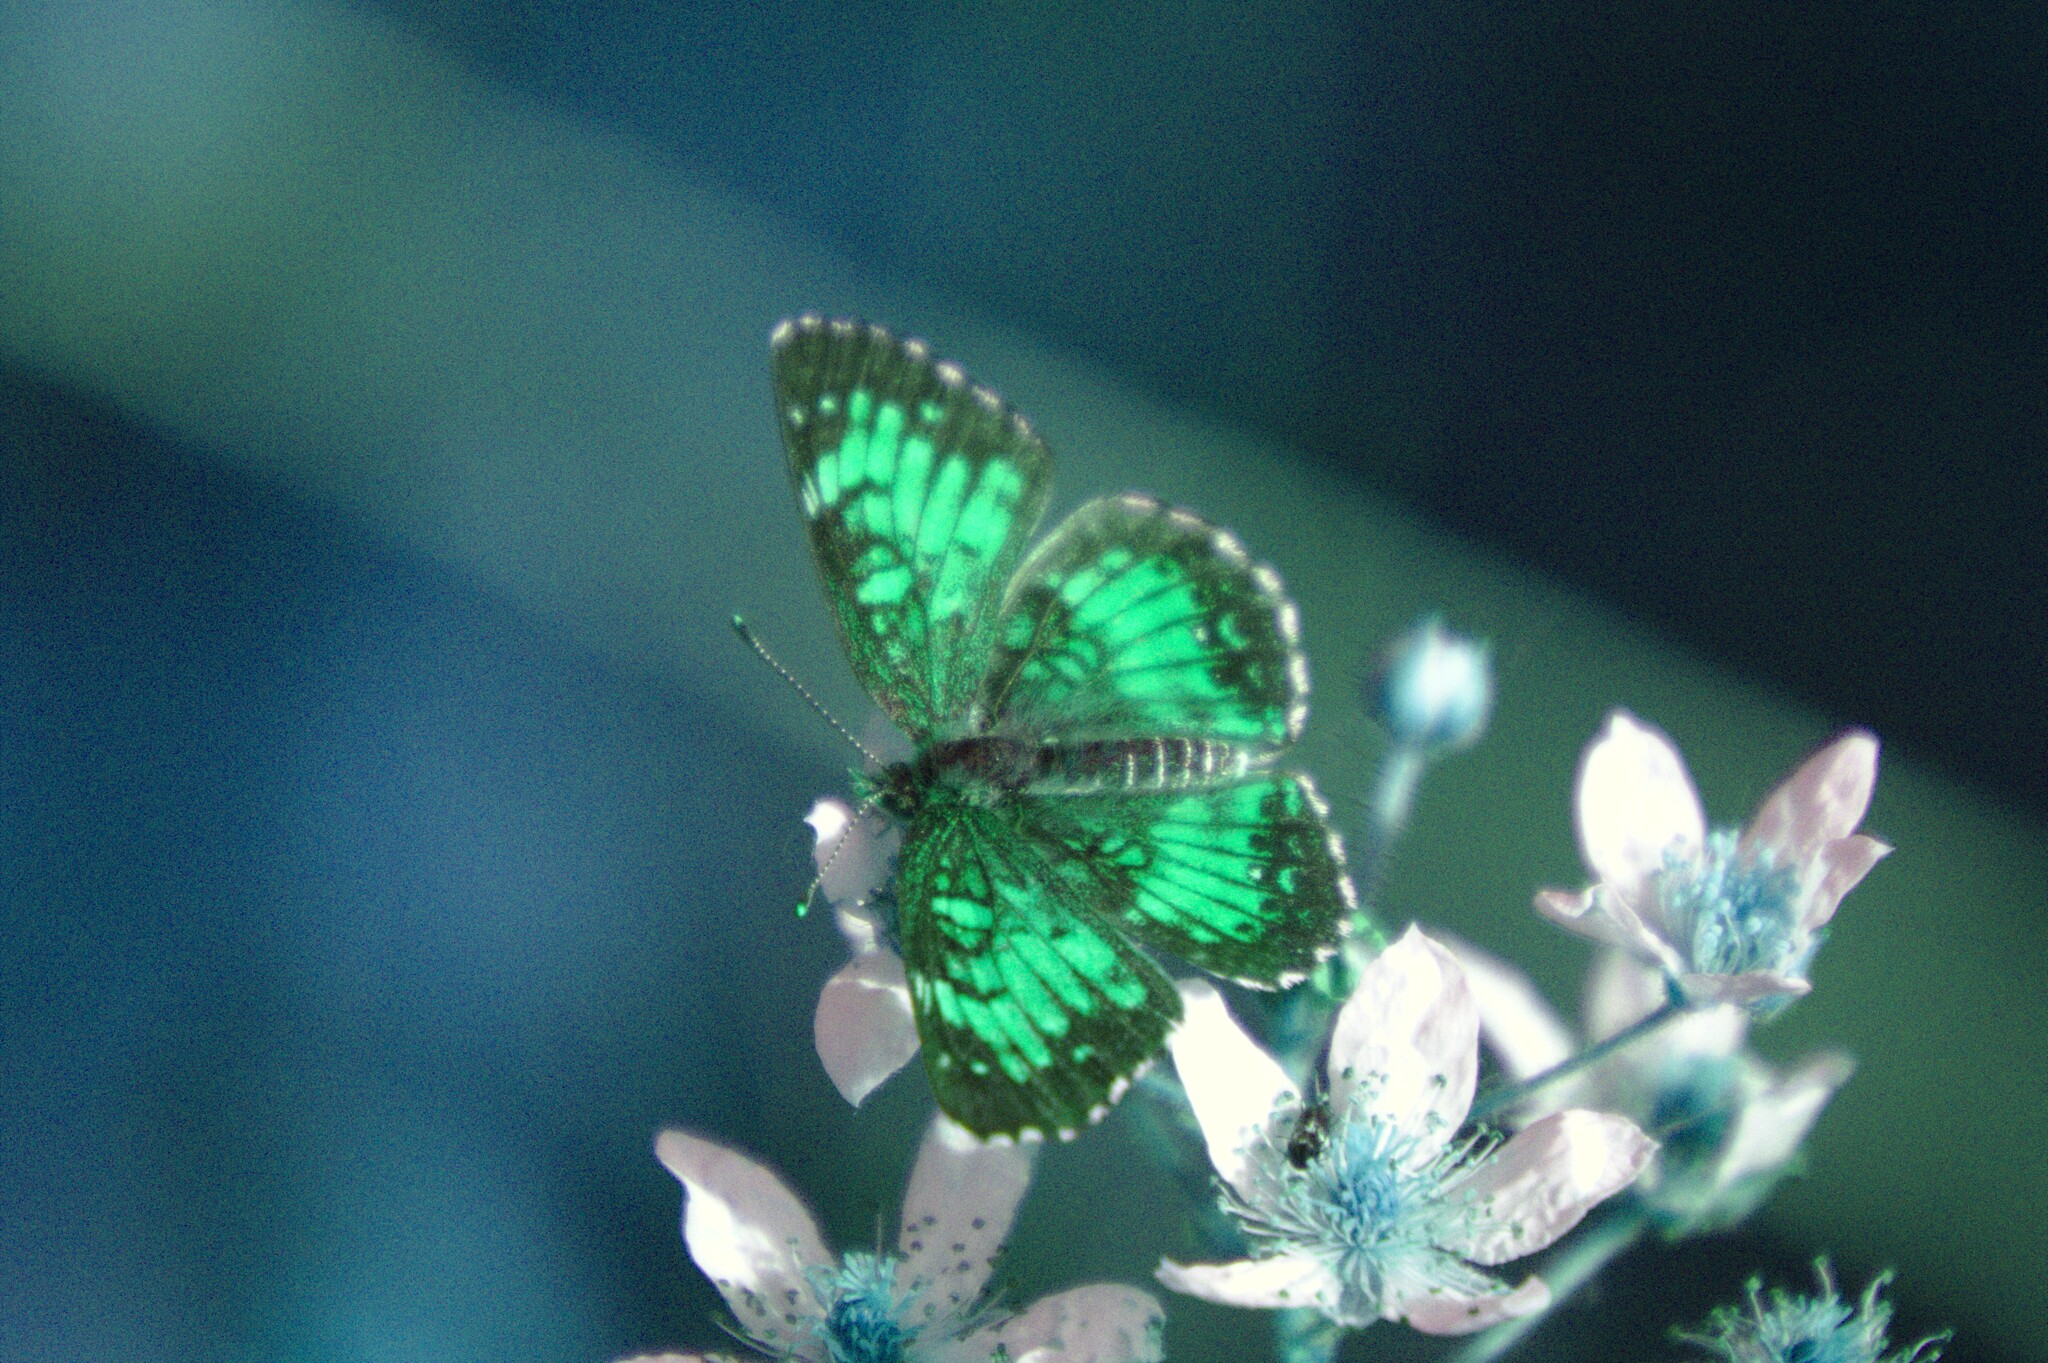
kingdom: Animalia
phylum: Arthropoda
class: Insecta
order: Lepidoptera
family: Nymphalidae
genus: Chlosyne
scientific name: Chlosyne harrisii
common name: Harris's checkerspot
